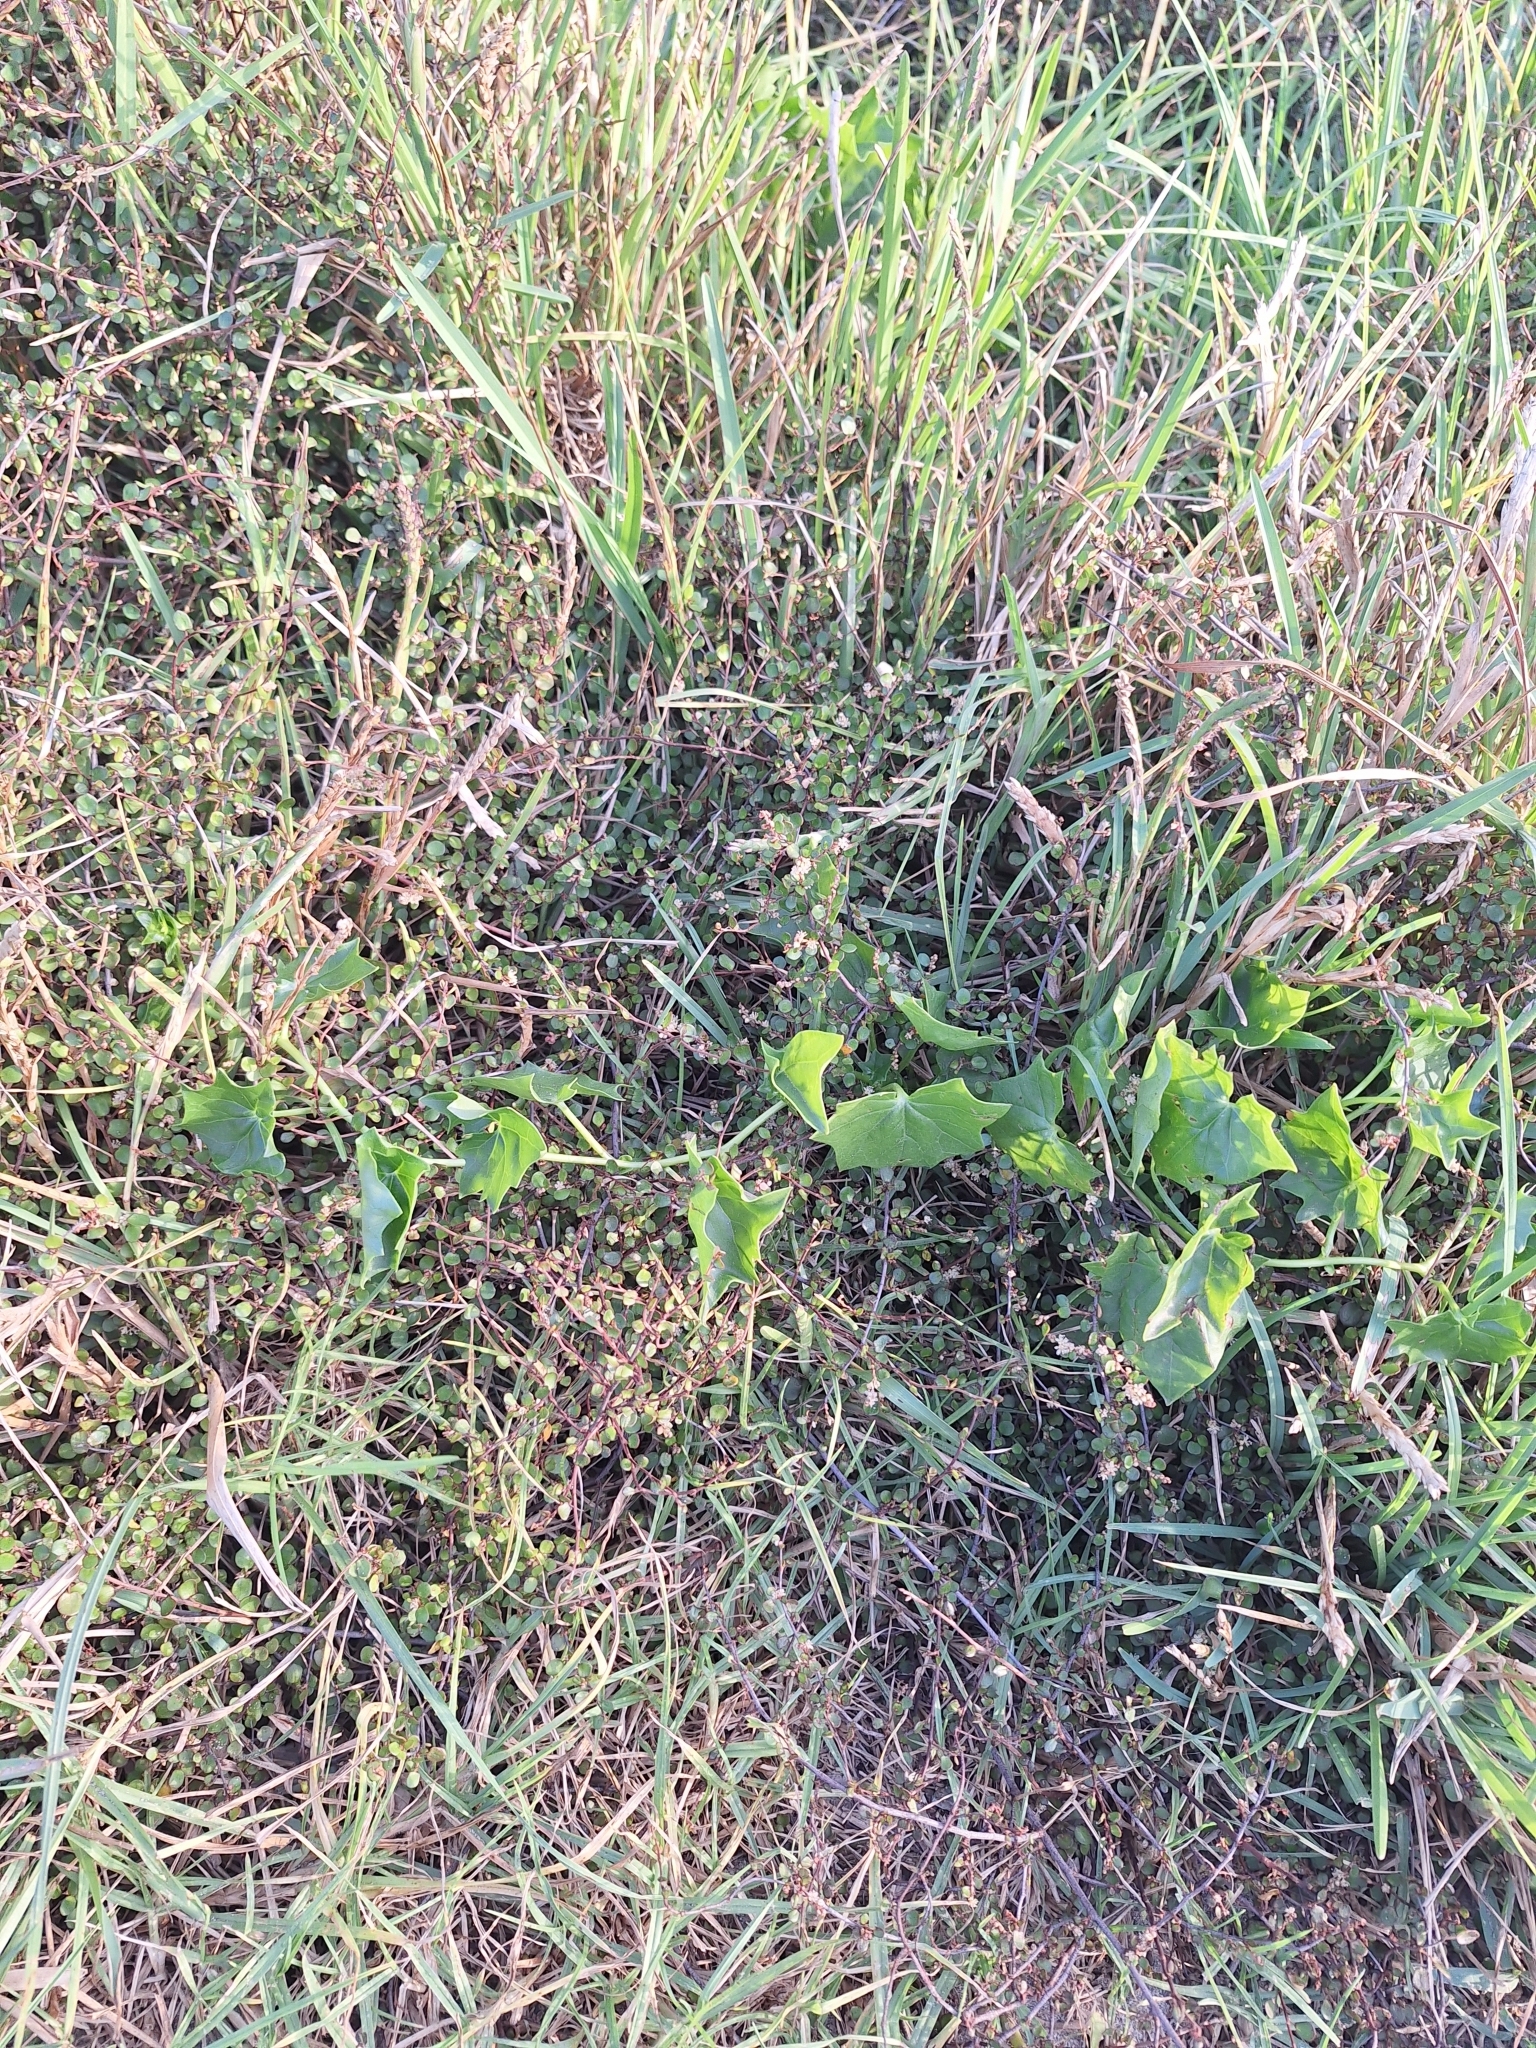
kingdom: Plantae
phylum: Tracheophyta
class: Magnoliopsida
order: Asterales
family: Asteraceae
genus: Delairea
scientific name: Delairea odorata
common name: Cape-ivy
